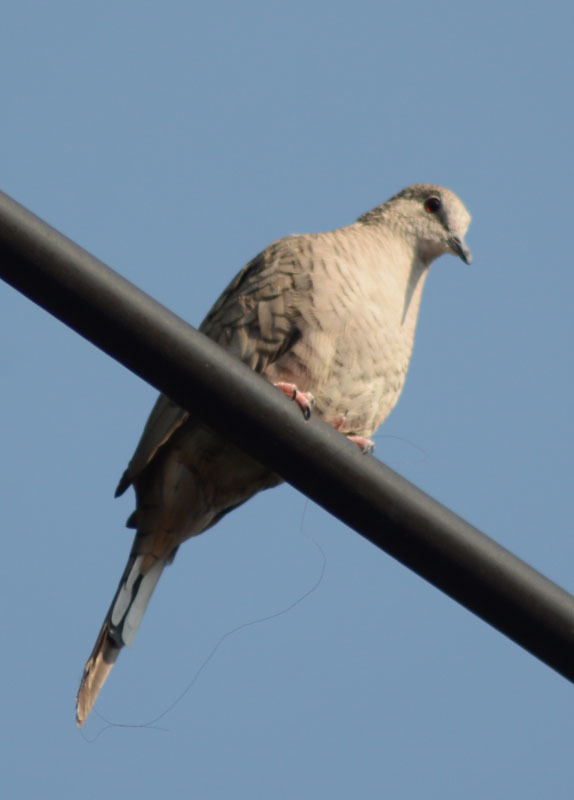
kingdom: Animalia
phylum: Chordata
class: Aves
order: Columbiformes
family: Columbidae
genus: Columbina
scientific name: Columbina inca
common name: Inca dove
